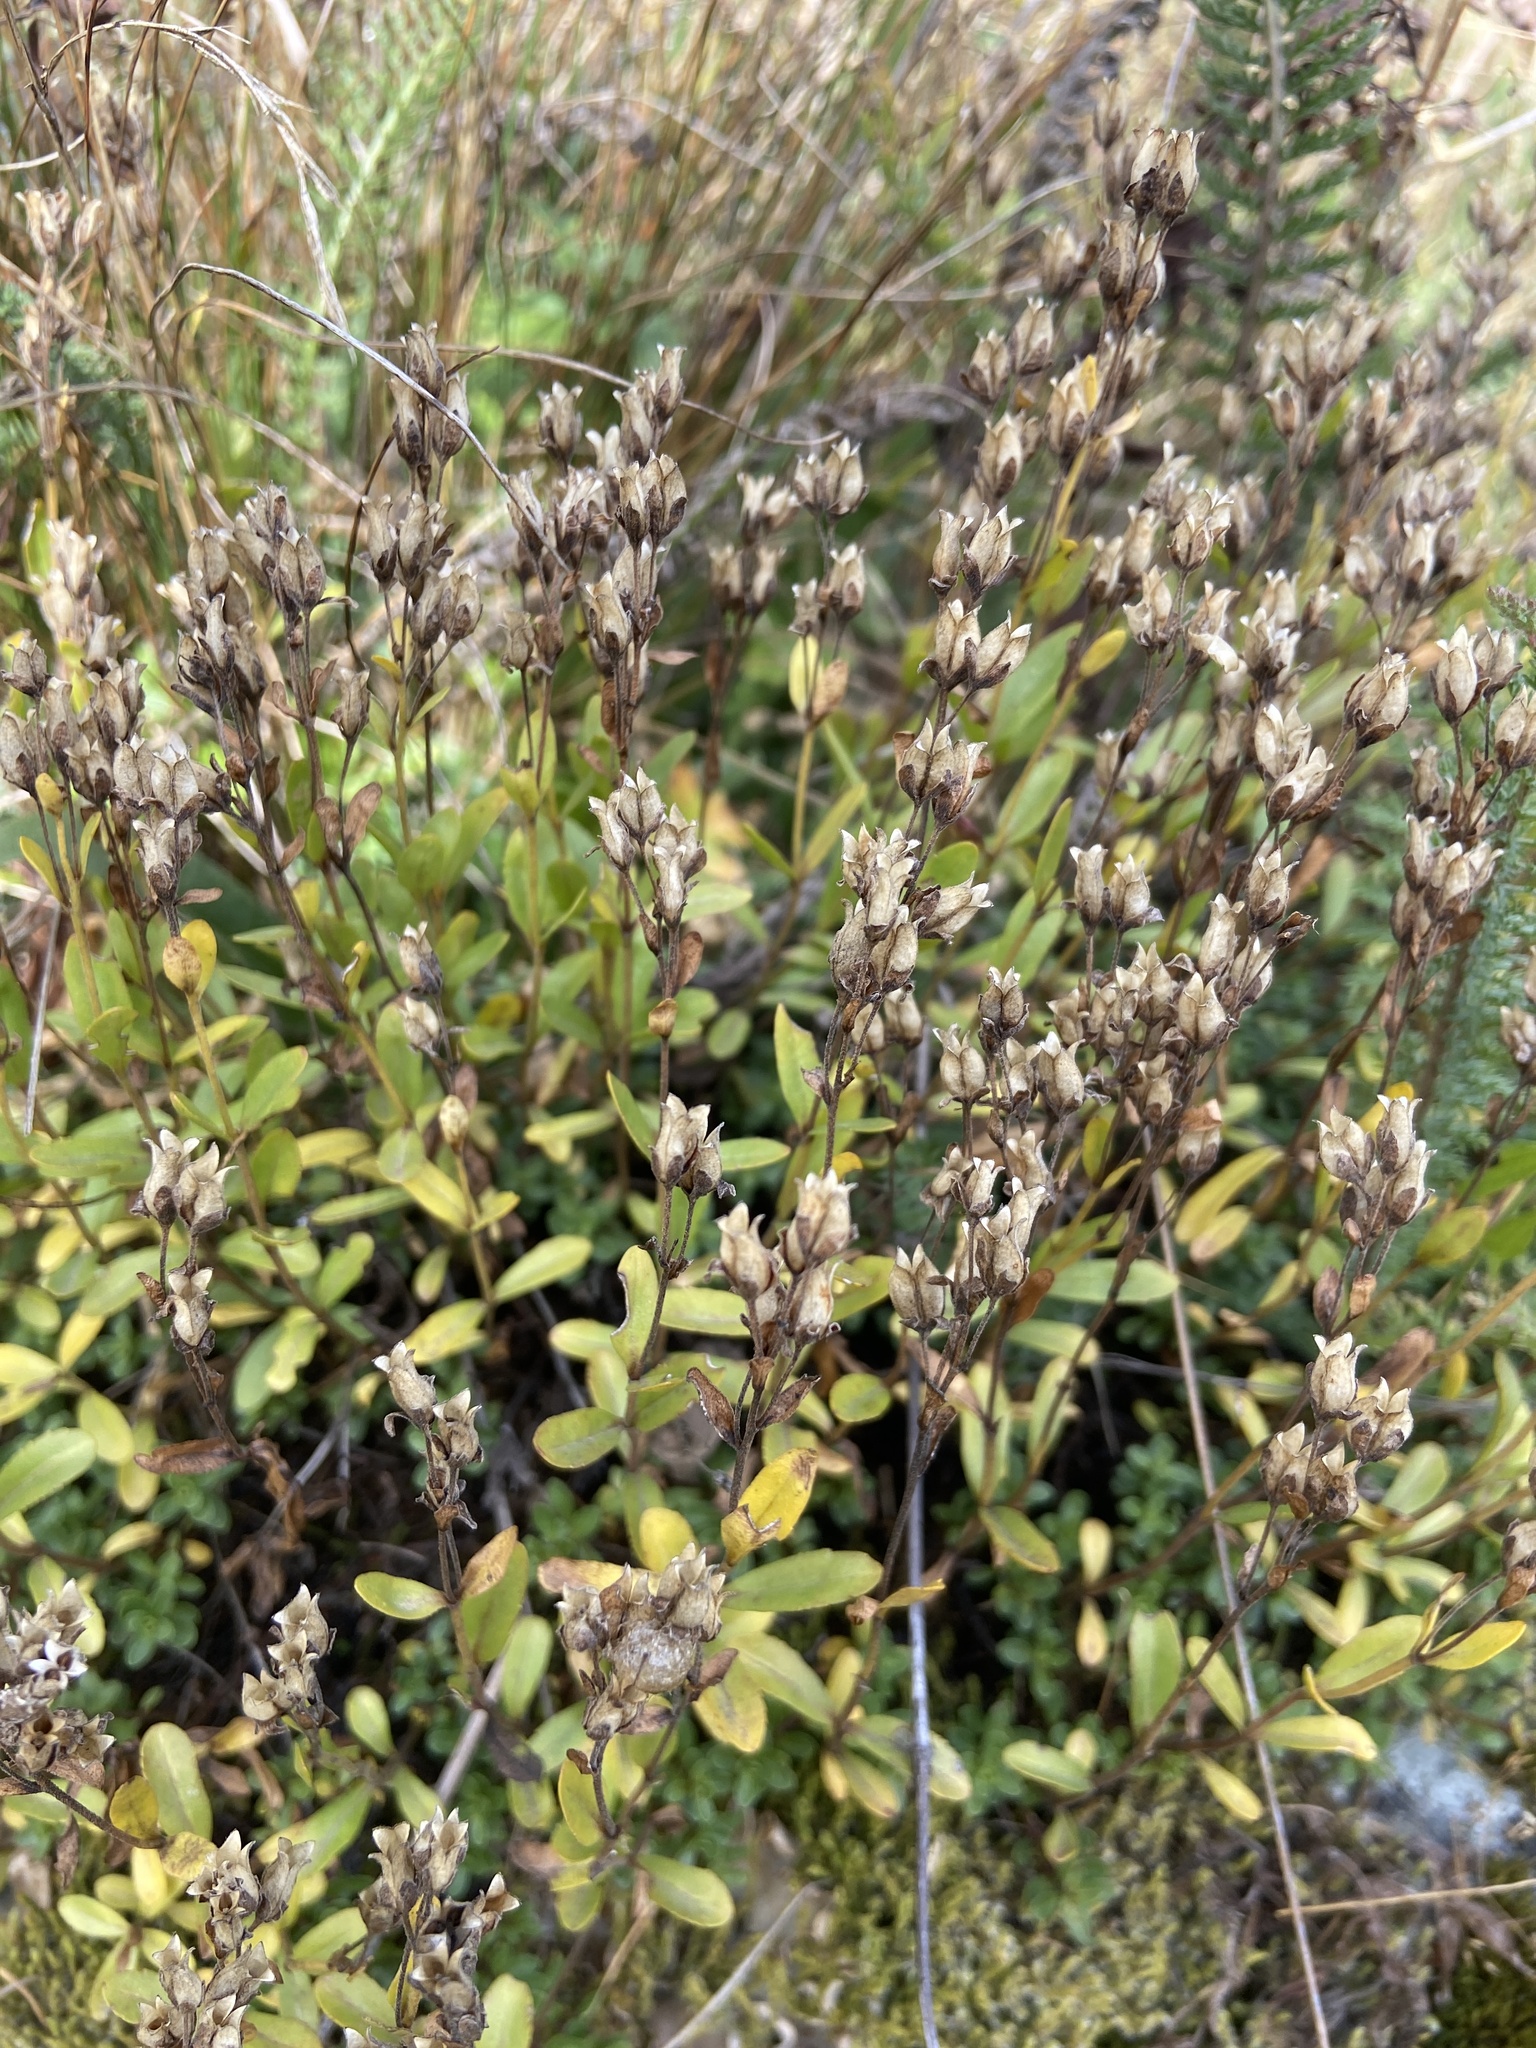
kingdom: Plantae
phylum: Tracheophyta
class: Magnoliopsida
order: Lamiales
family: Plantaginaceae
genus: Veronica
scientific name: Veronica fruticans
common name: Rock speedwell
